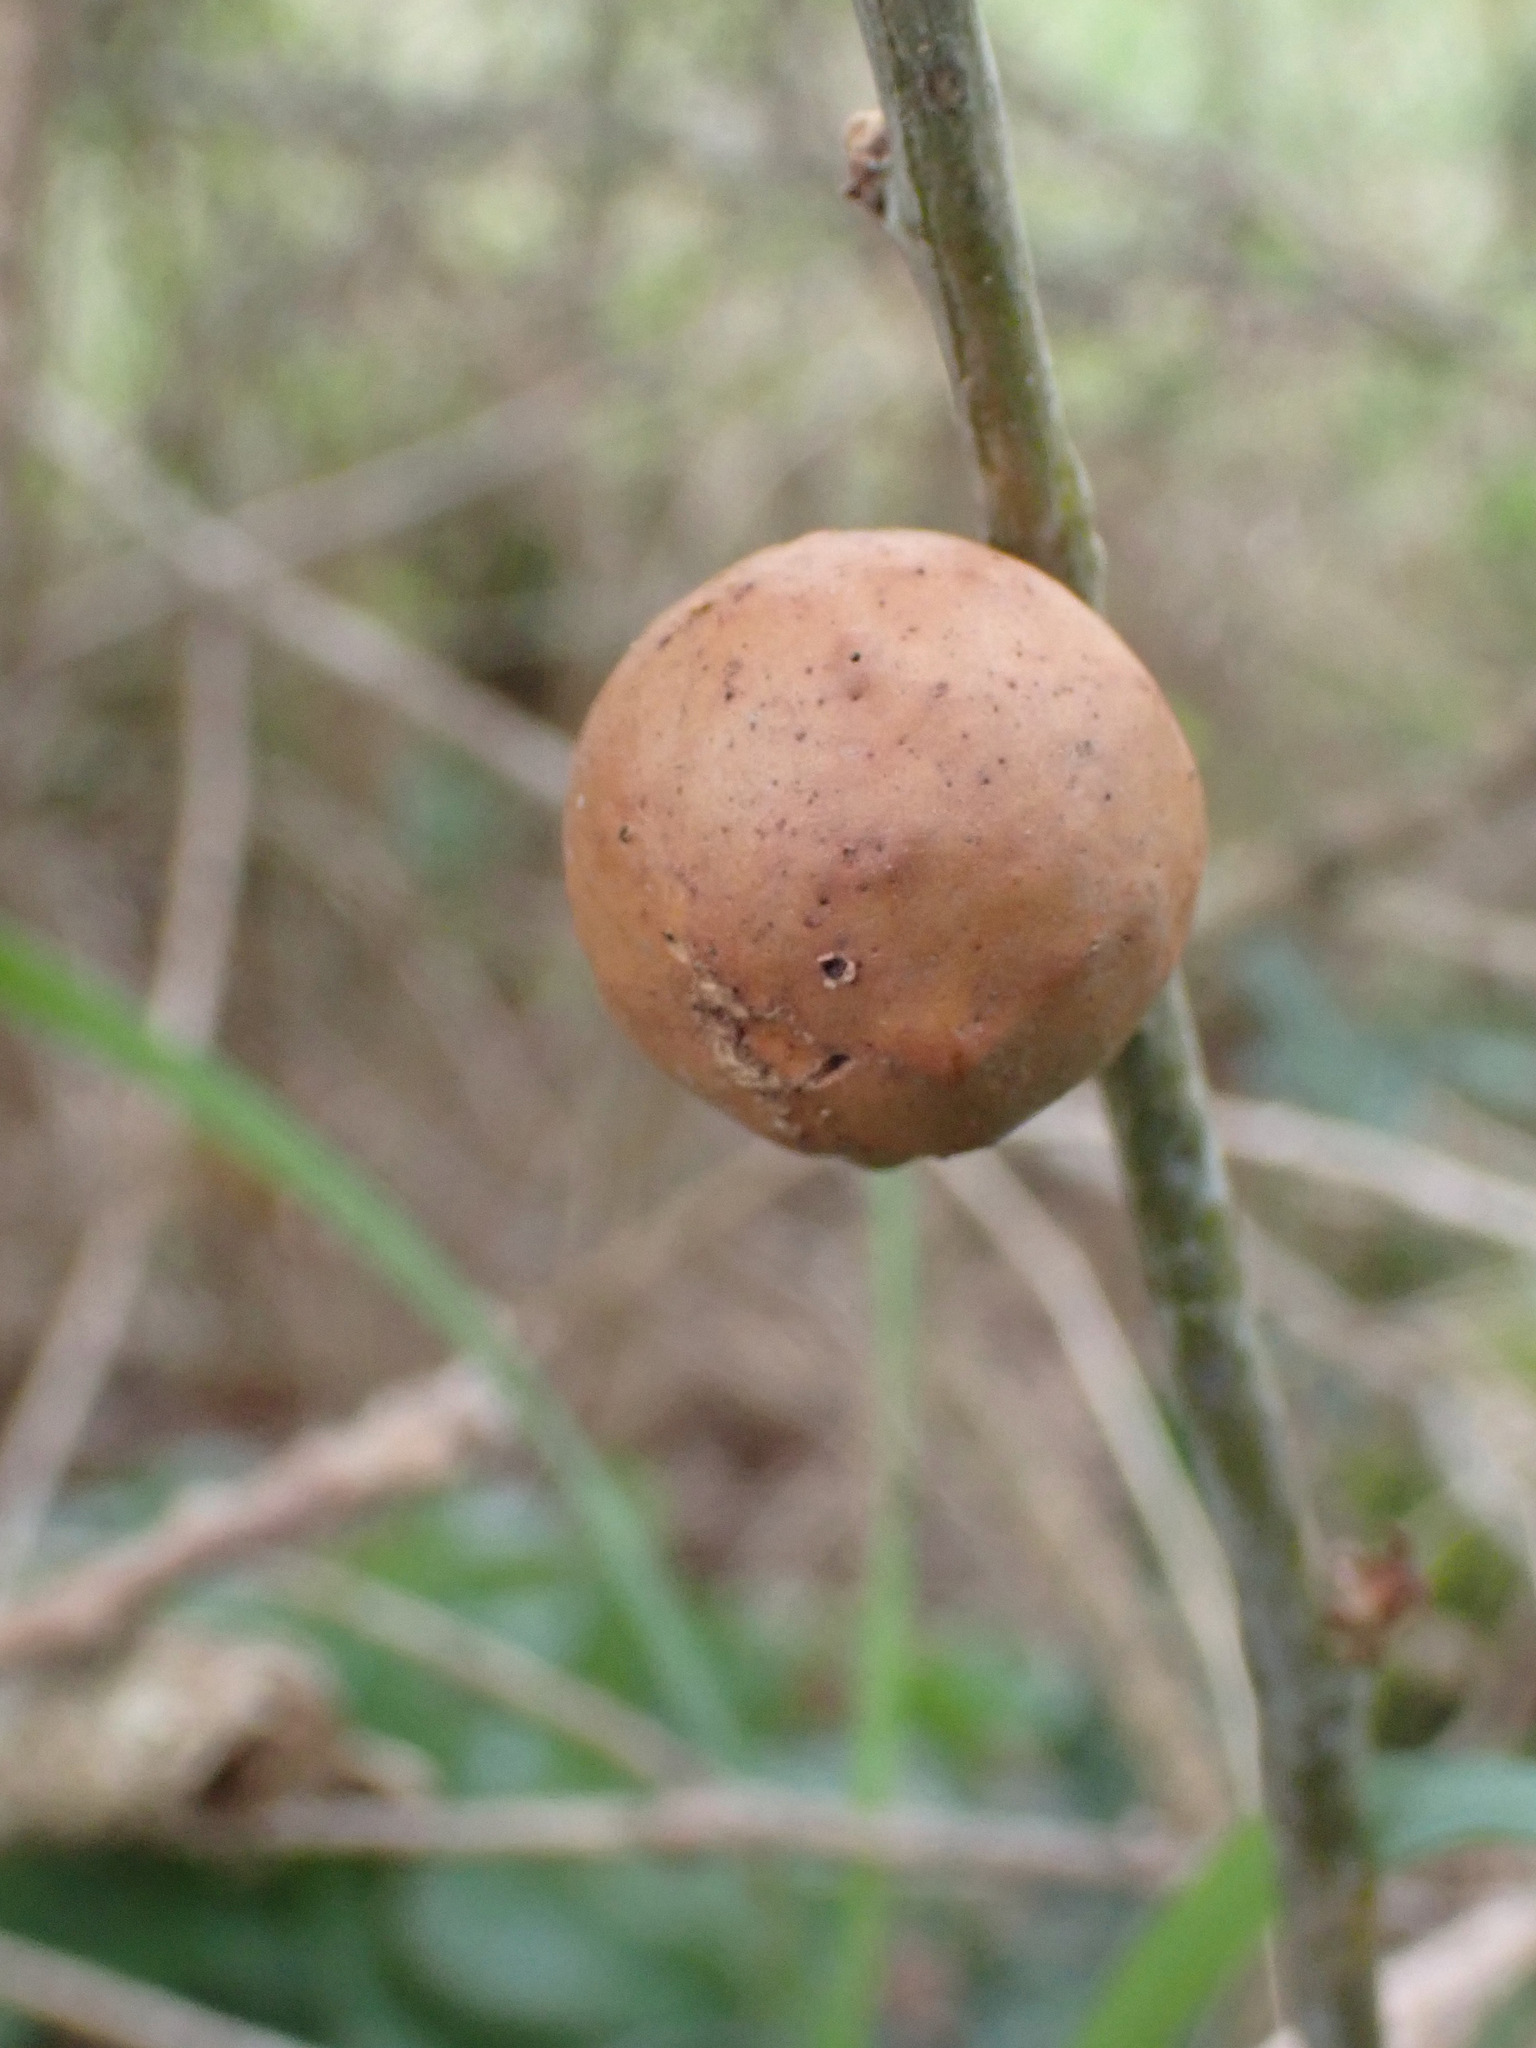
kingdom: Animalia
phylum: Arthropoda
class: Insecta
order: Hymenoptera
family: Cynipidae
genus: Andricus
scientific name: Andricus kollari
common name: Marble gall
